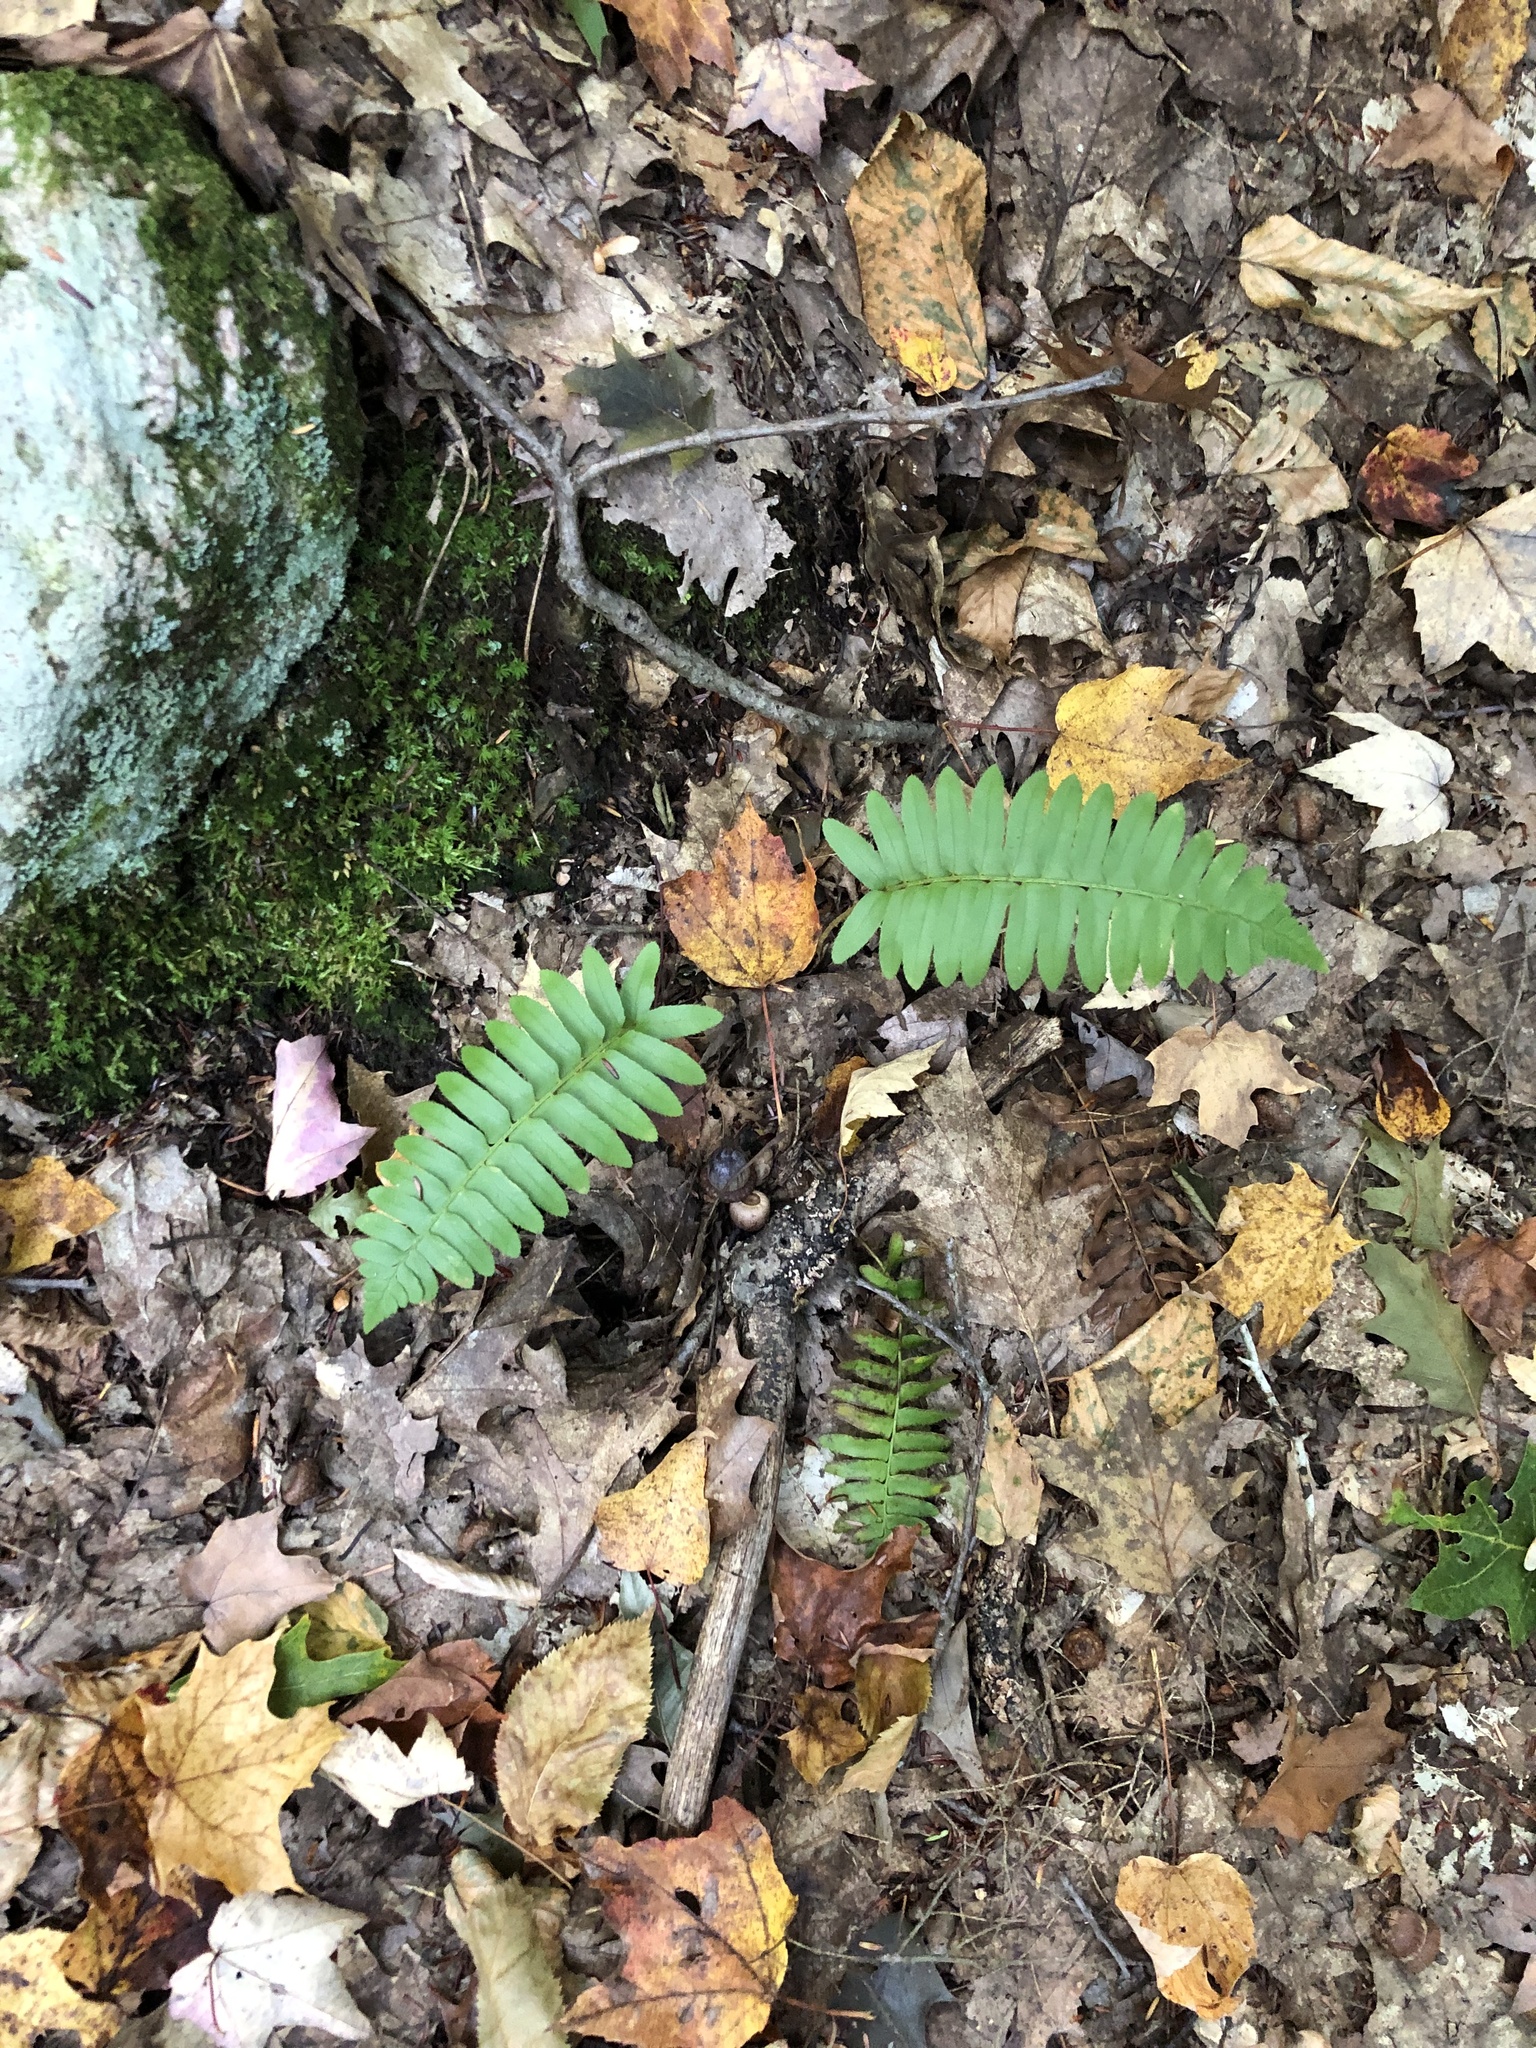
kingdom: Plantae
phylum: Tracheophyta
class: Polypodiopsida
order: Polypodiales
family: Dryopteridaceae
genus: Polystichum
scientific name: Polystichum acrostichoides
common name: Christmas fern
